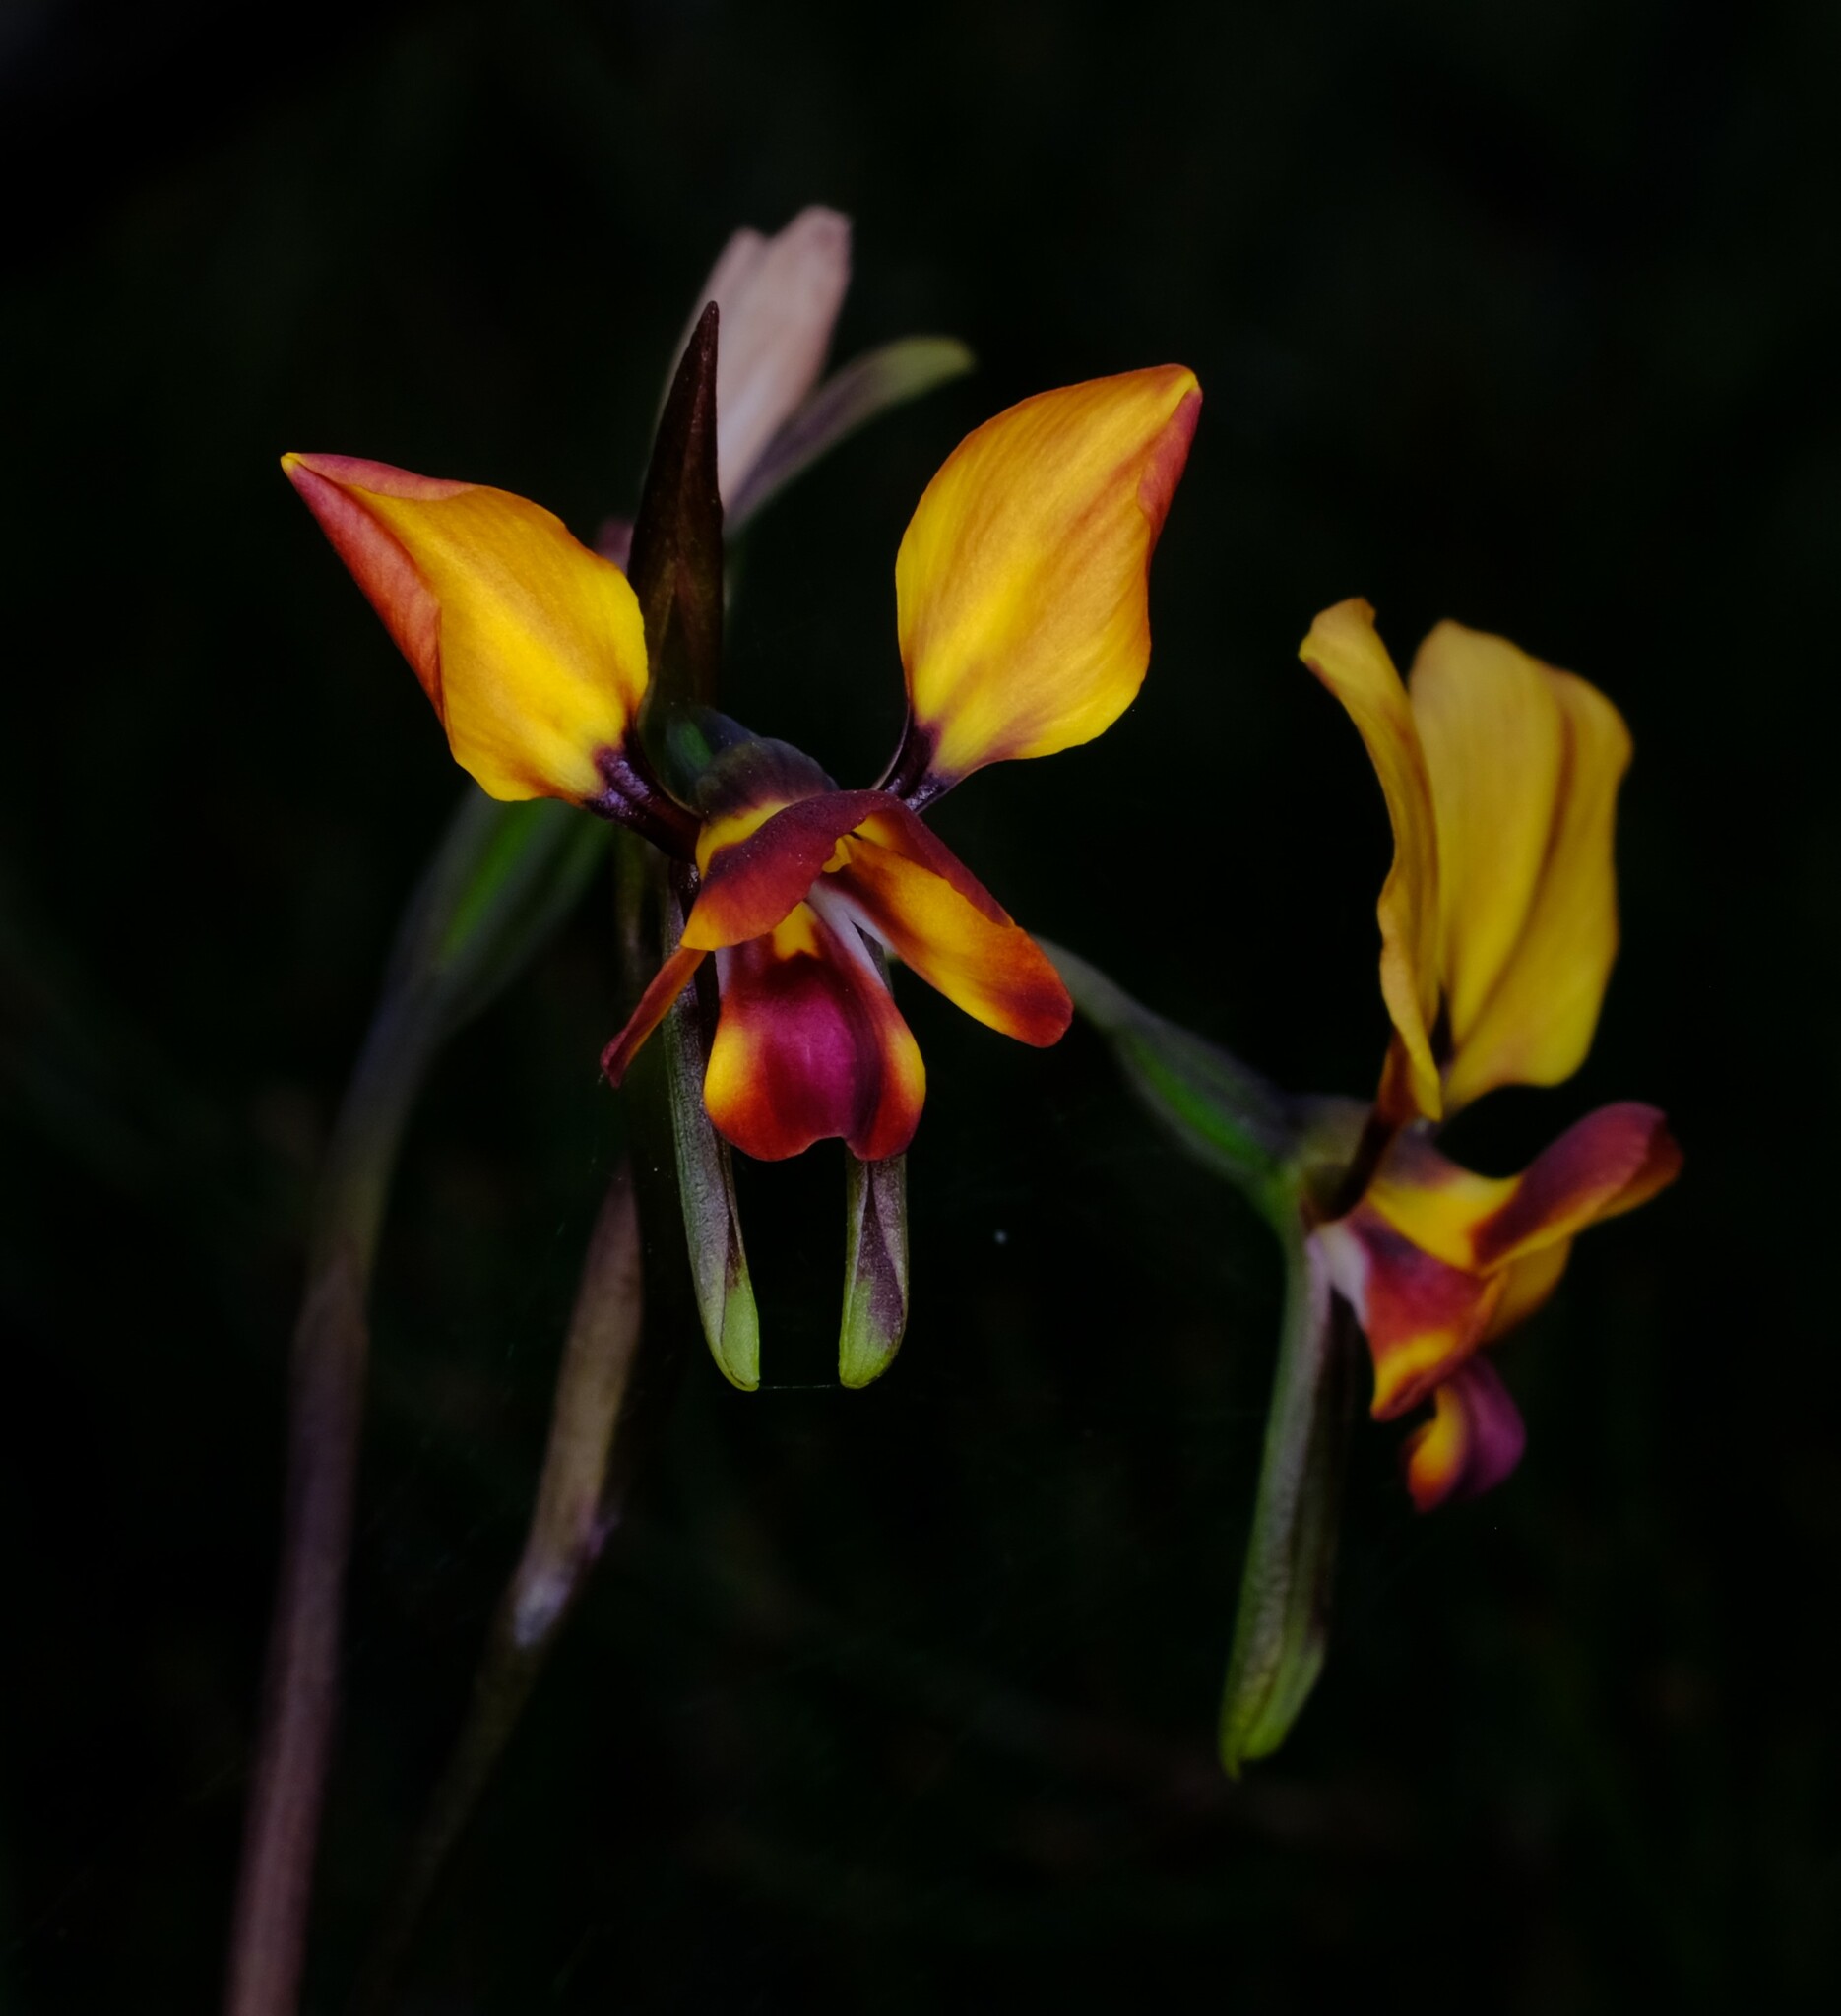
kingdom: Plantae
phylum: Tracheophyta
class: Liliopsida
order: Asparagales
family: Orchidaceae
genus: Diuris
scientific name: Diuris orientis
